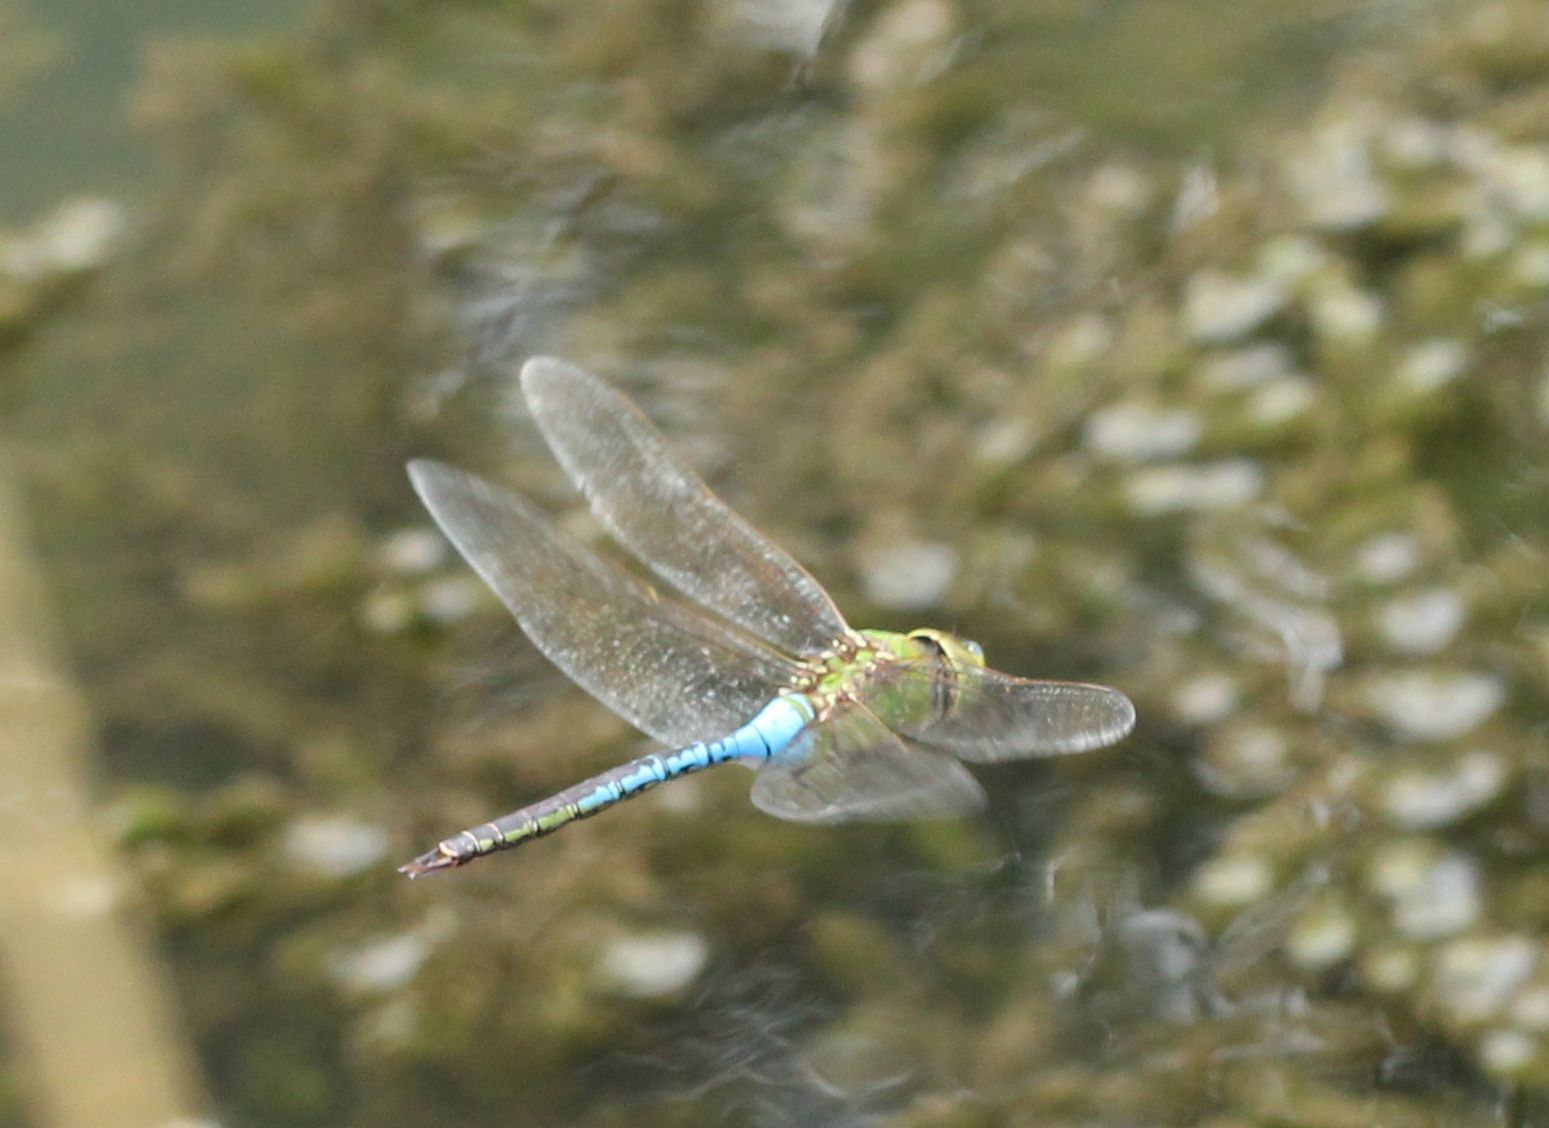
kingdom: Animalia
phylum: Arthropoda
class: Insecta
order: Odonata
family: Aeshnidae
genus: Anax
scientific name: Anax junius
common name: Common green darner
